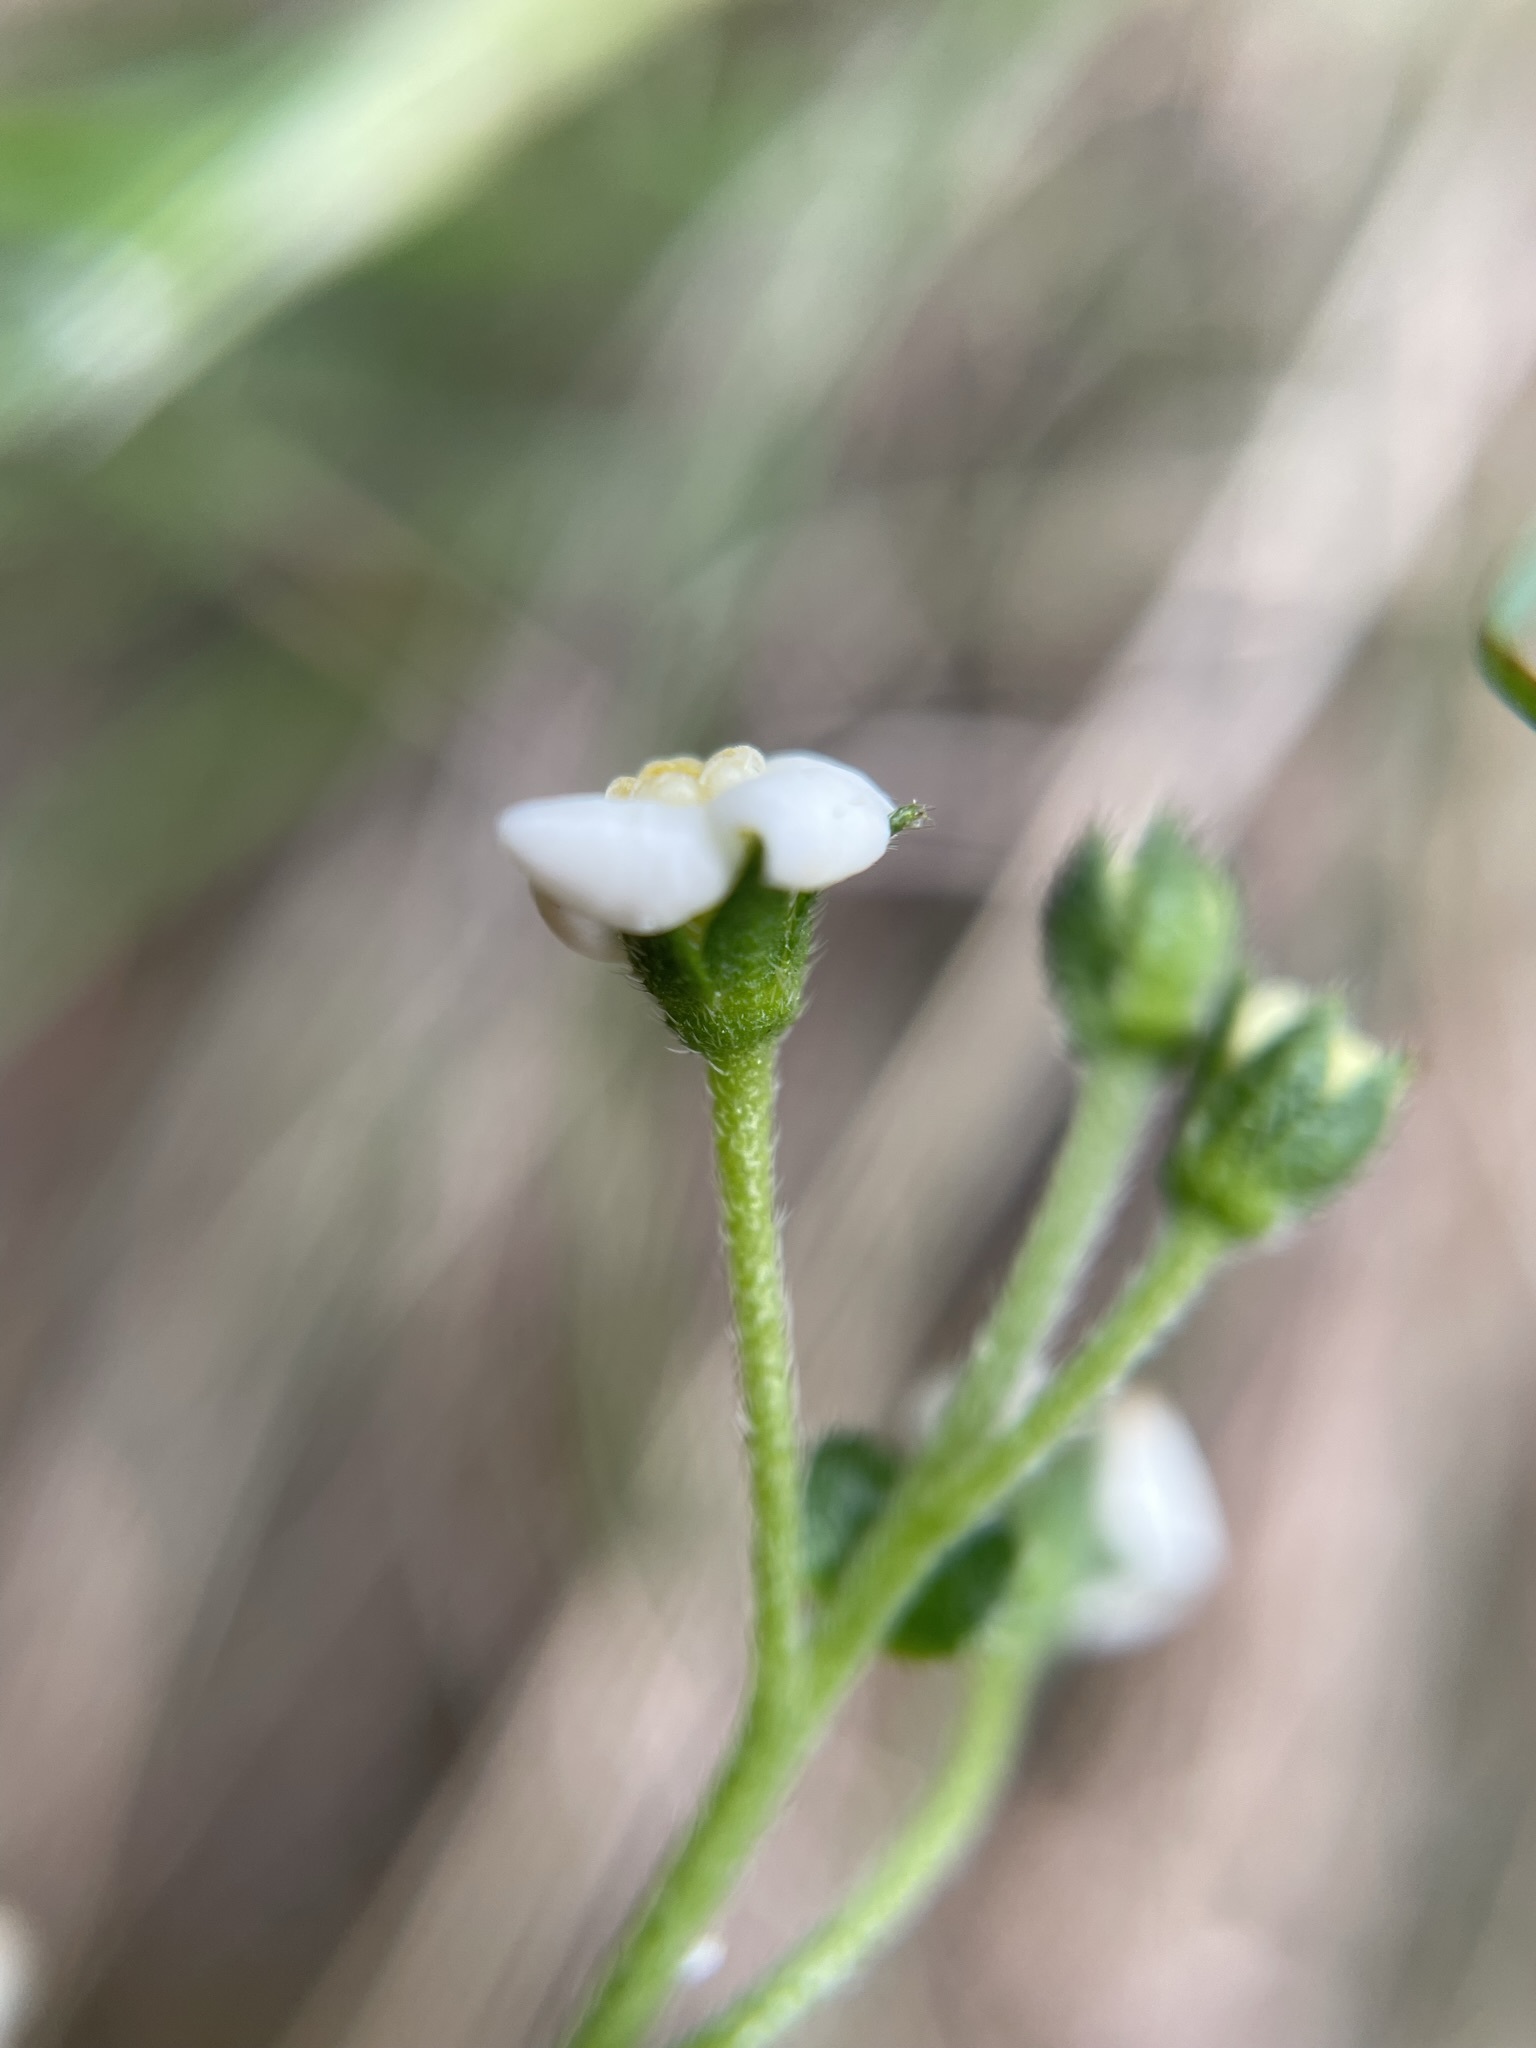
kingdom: Plantae
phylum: Tracheophyta
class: Magnoliopsida
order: Boraginales
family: Boraginaceae
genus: Hackelia
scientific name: Hackelia suaveolens
